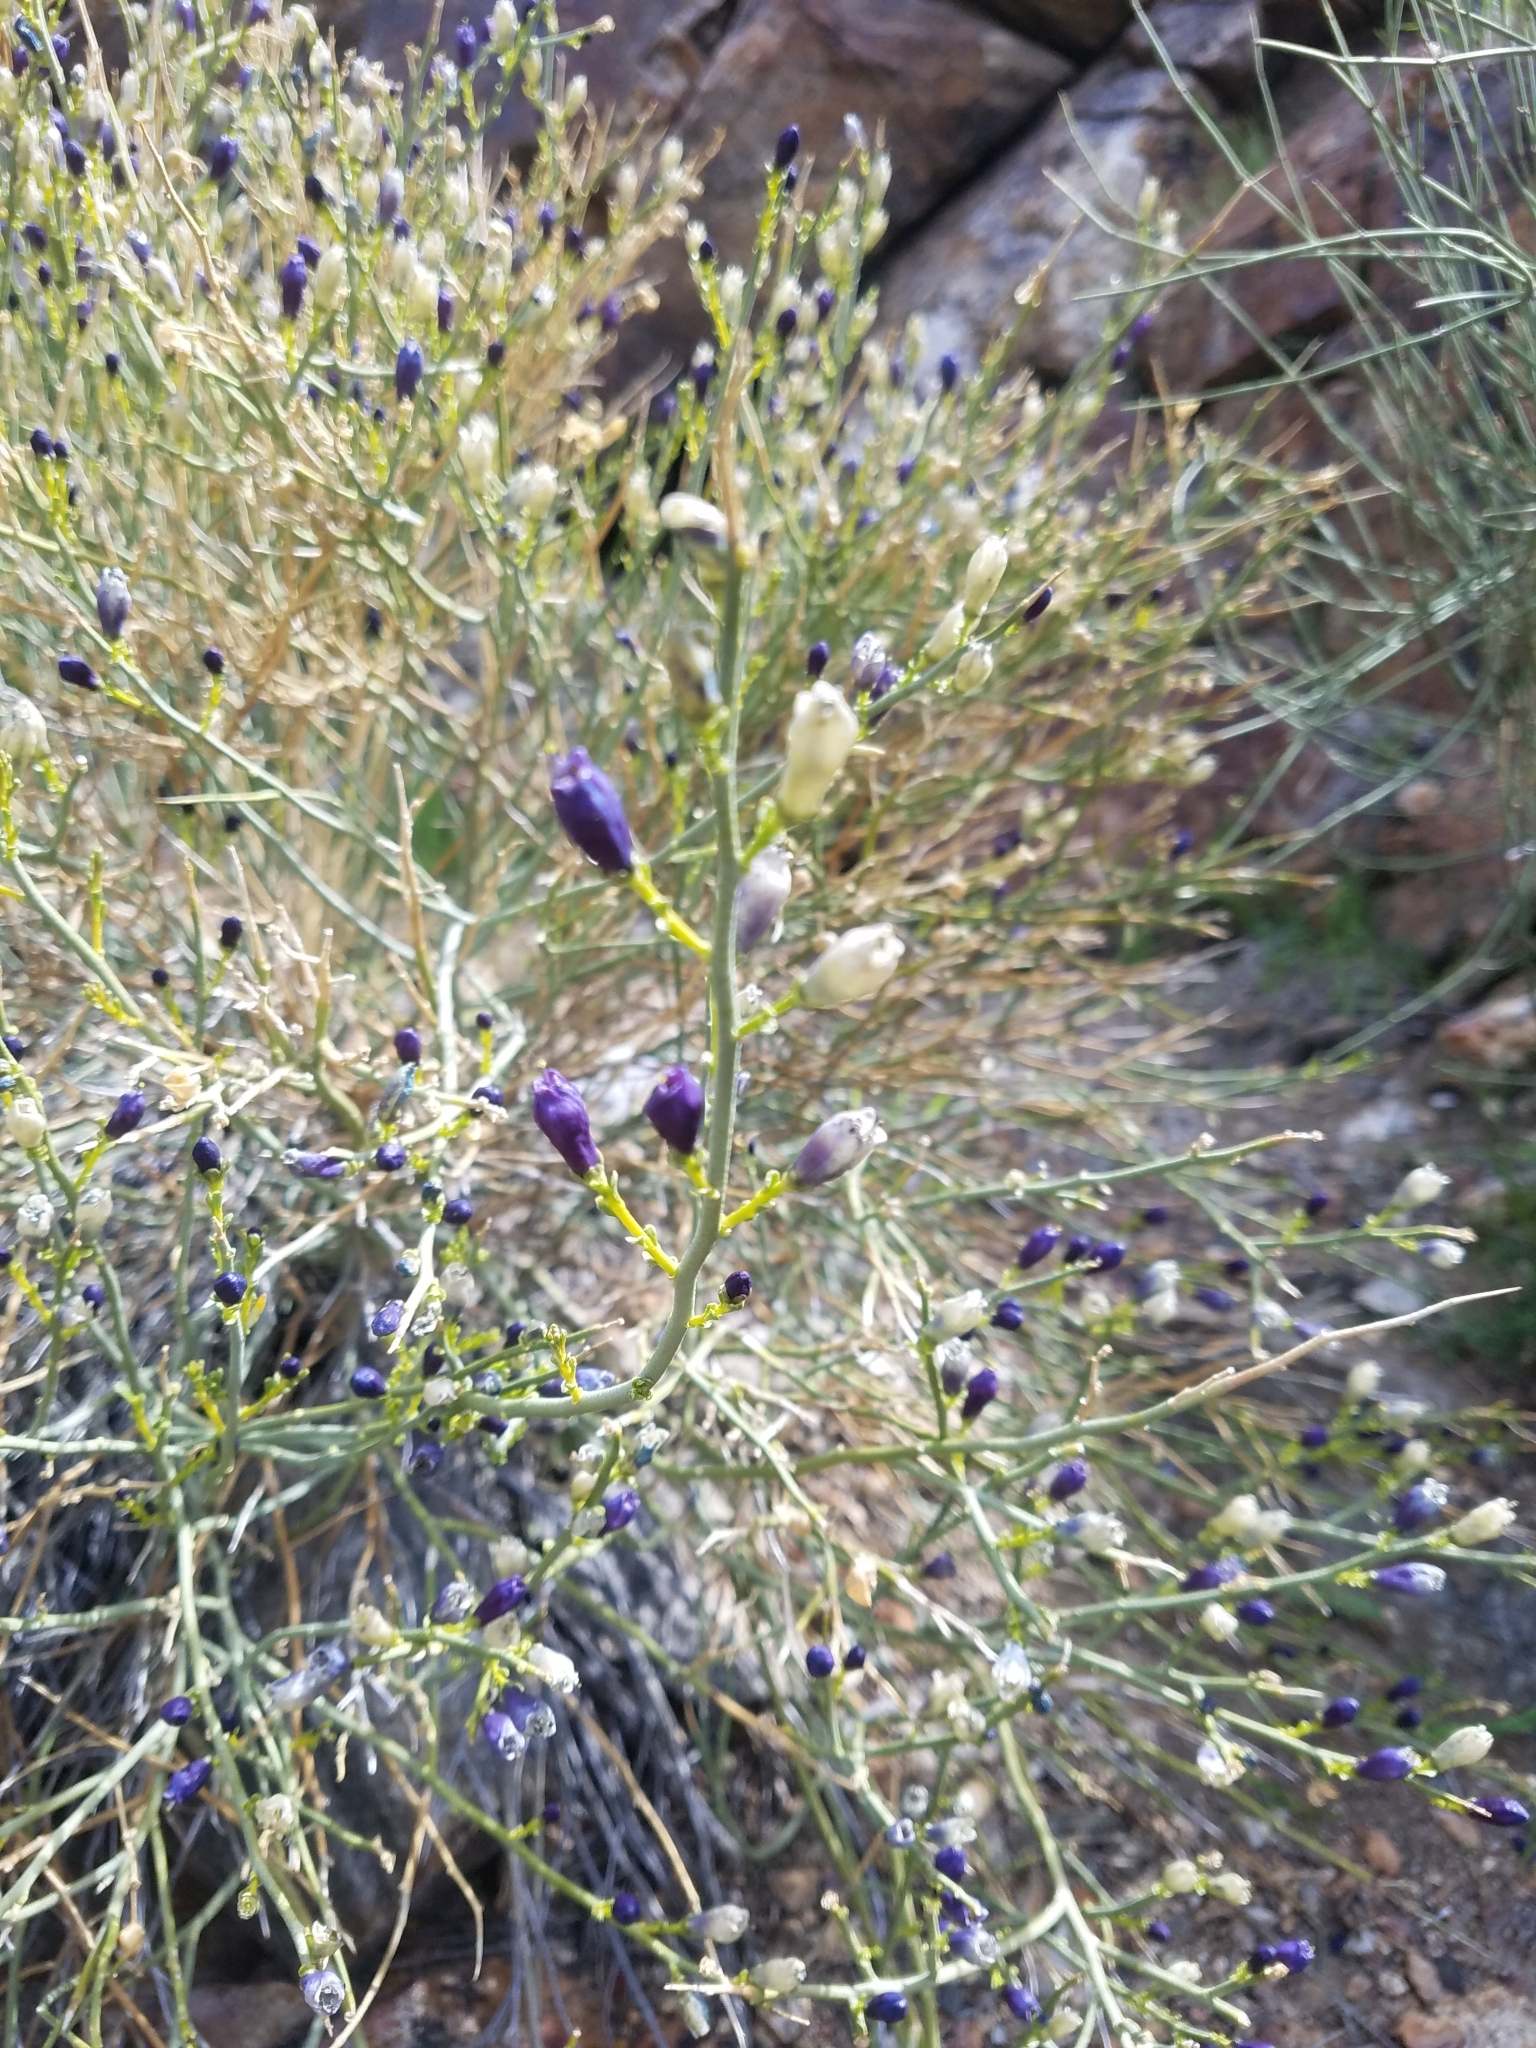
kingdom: Plantae
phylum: Tracheophyta
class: Magnoliopsida
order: Sapindales
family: Rutaceae
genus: Thamnosma
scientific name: Thamnosma montana
